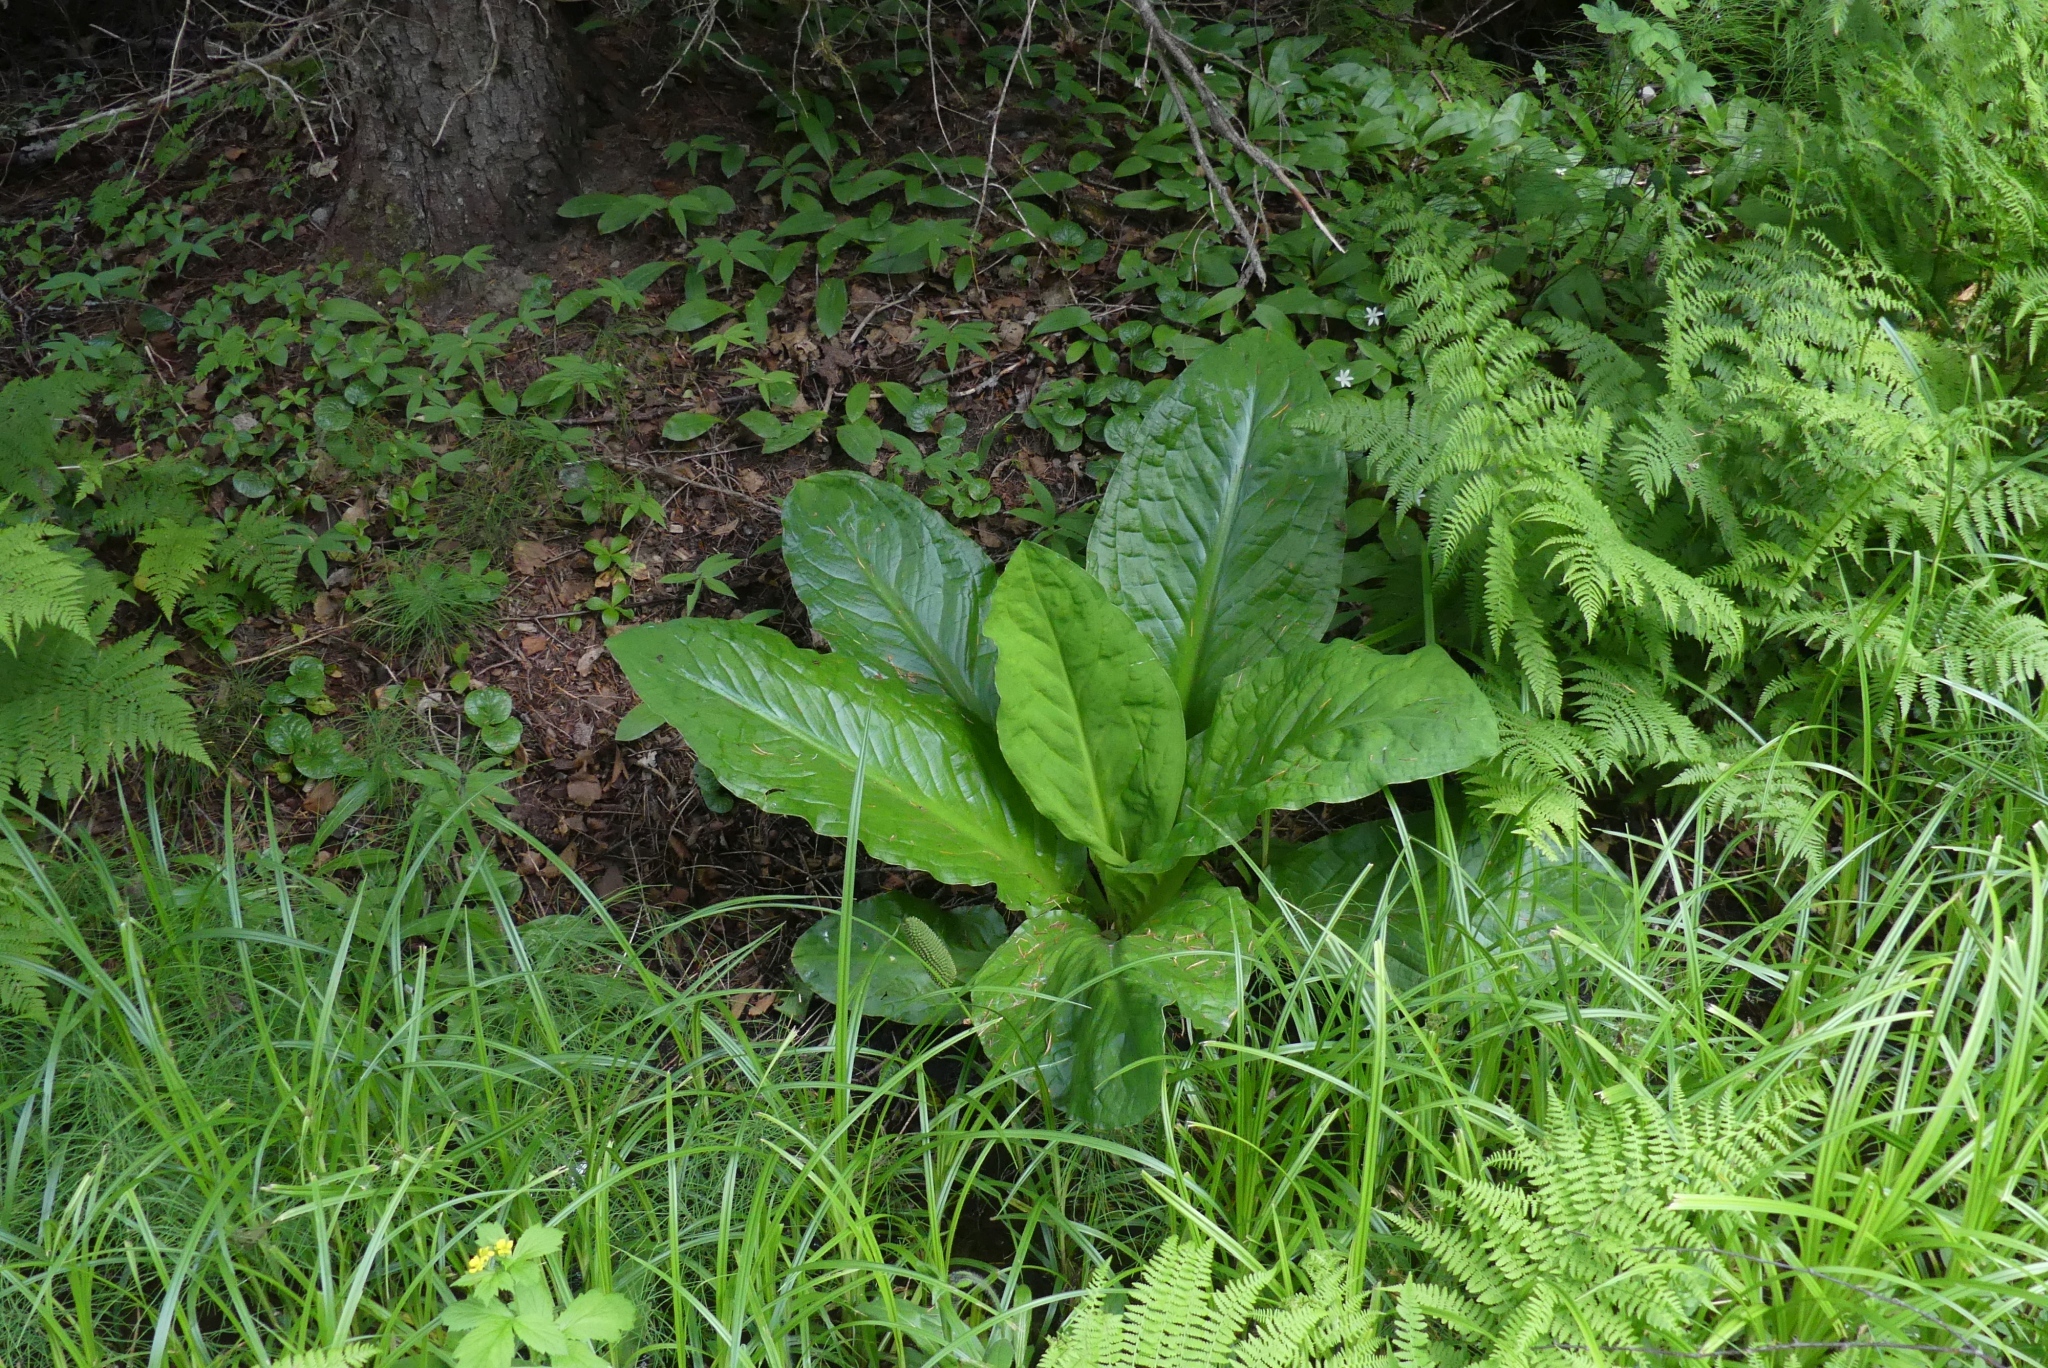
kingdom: Plantae
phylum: Tracheophyta
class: Liliopsida
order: Alismatales
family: Araceae
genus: Lysichiton
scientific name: Lysichiton americanus
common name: American skunk cabbage
